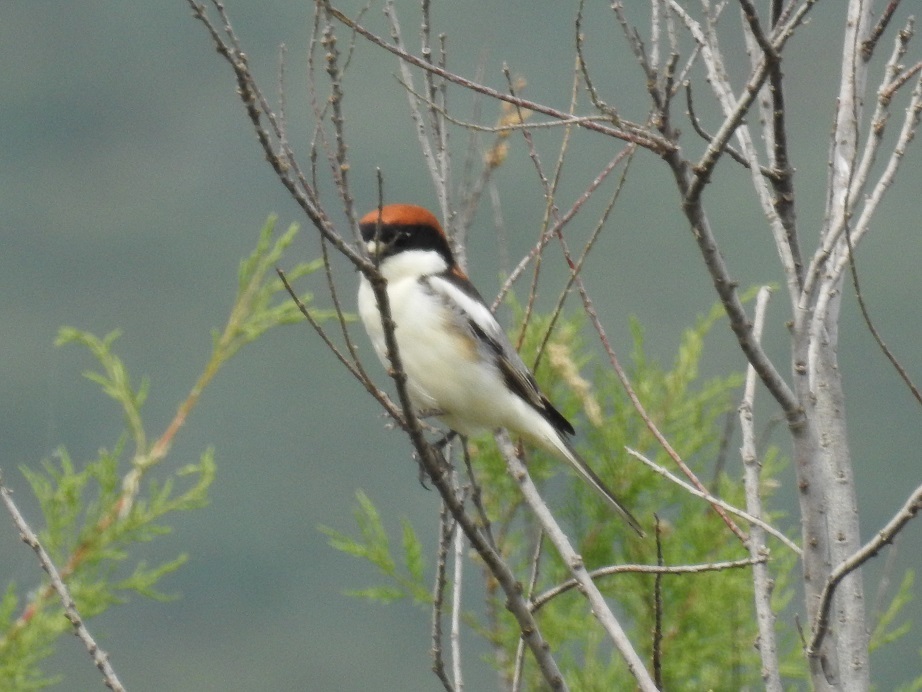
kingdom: Animalia
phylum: Chordata
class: Aves
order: Passeriformes
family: Laniidae
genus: Lanius
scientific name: Lanius senator
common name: Woodchat shrike
